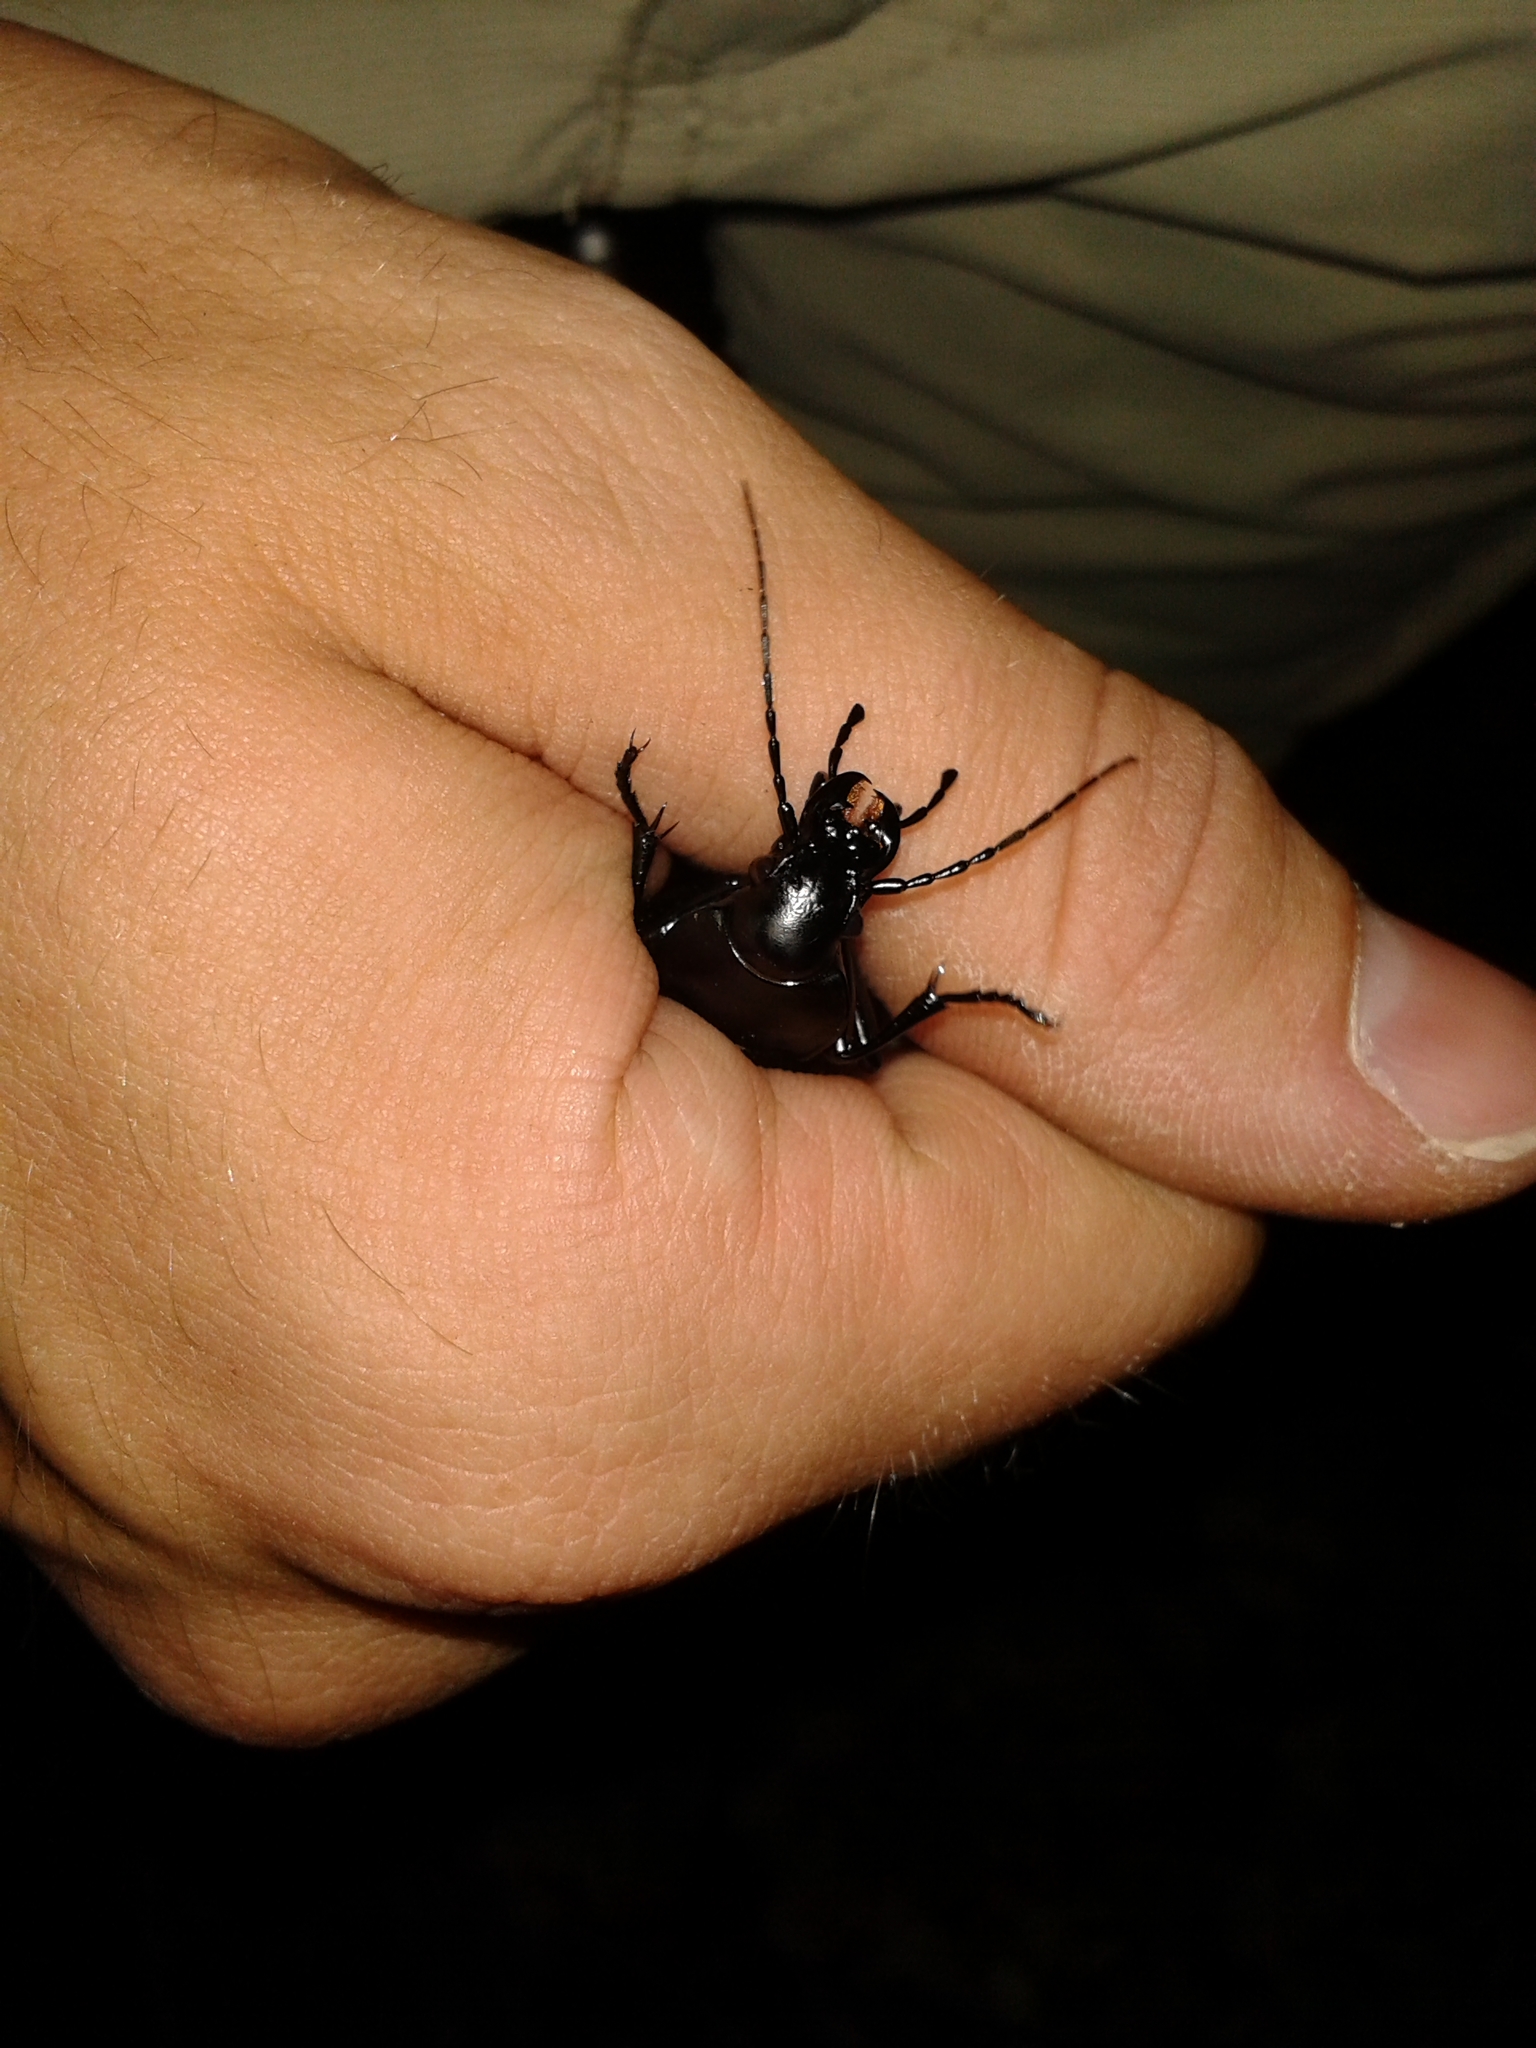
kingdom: Animalia
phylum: Arthropoda
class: Insecta
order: Coleoptera
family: Carabidae
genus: Carabus
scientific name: Carabus coriaceus
